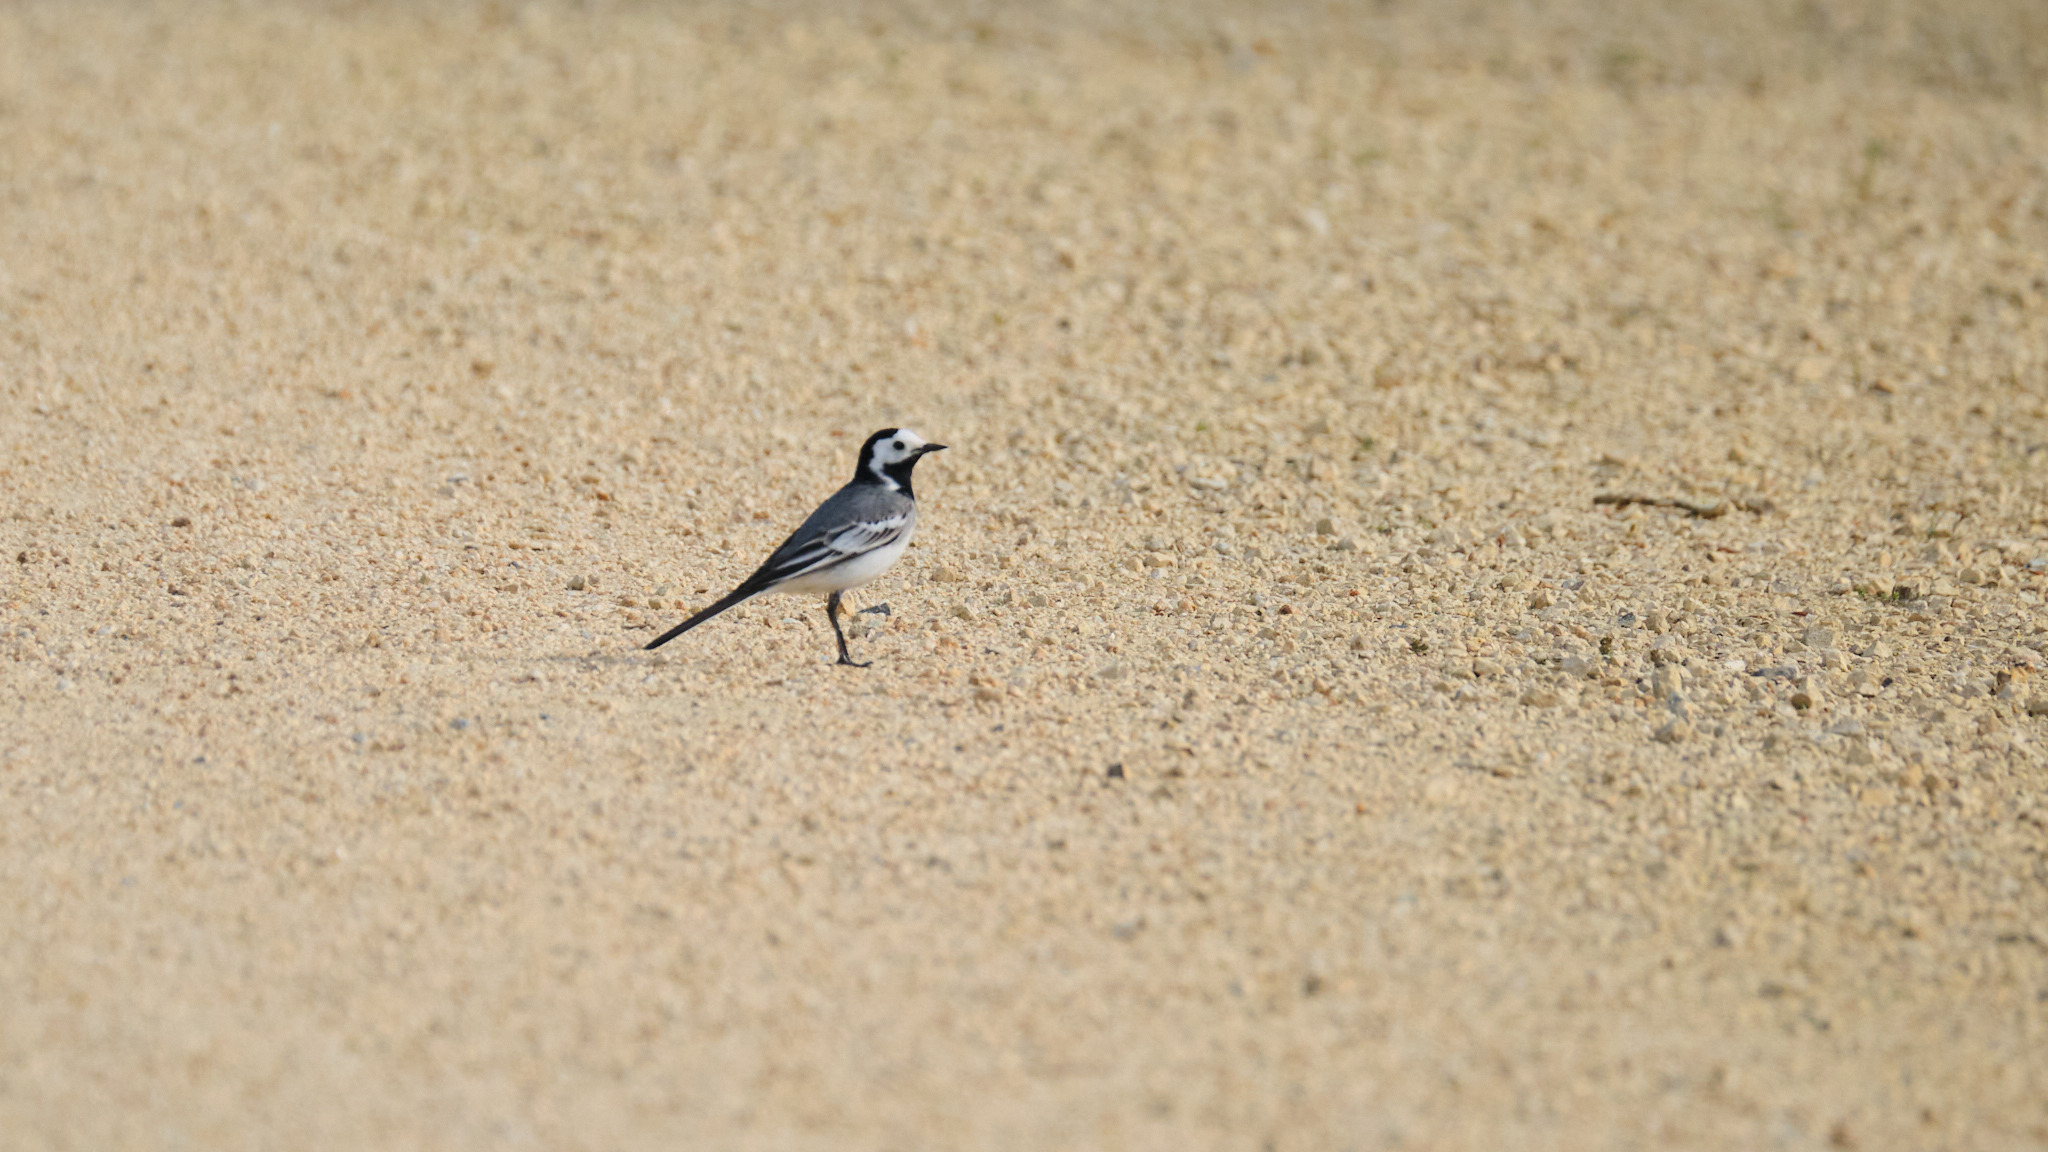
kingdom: Animalia
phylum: Chordata
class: Aves
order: Passeriformes
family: Motacillidae
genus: Motacilla
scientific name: Motacilla alba
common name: White wagtail
